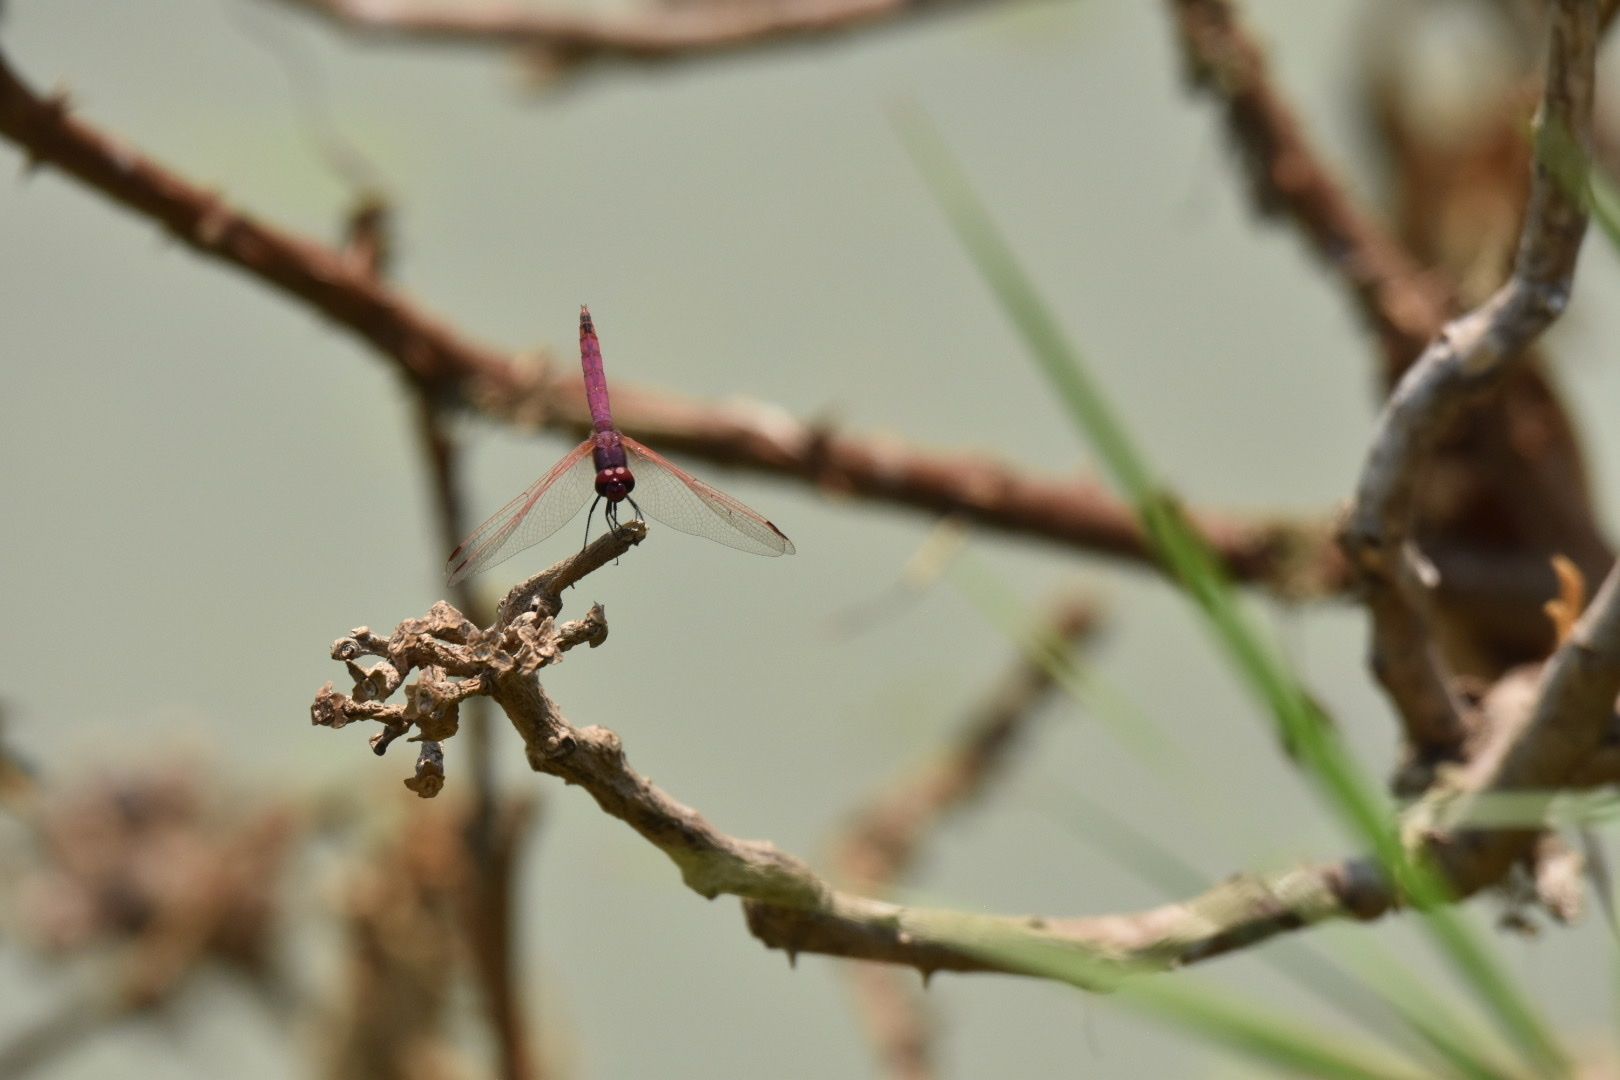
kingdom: Animalia
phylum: Arthropoda
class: Insecta
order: Odonata
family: Libellulidae
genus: Trithemis
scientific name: Trithemis annulata
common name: Violet dropwing
